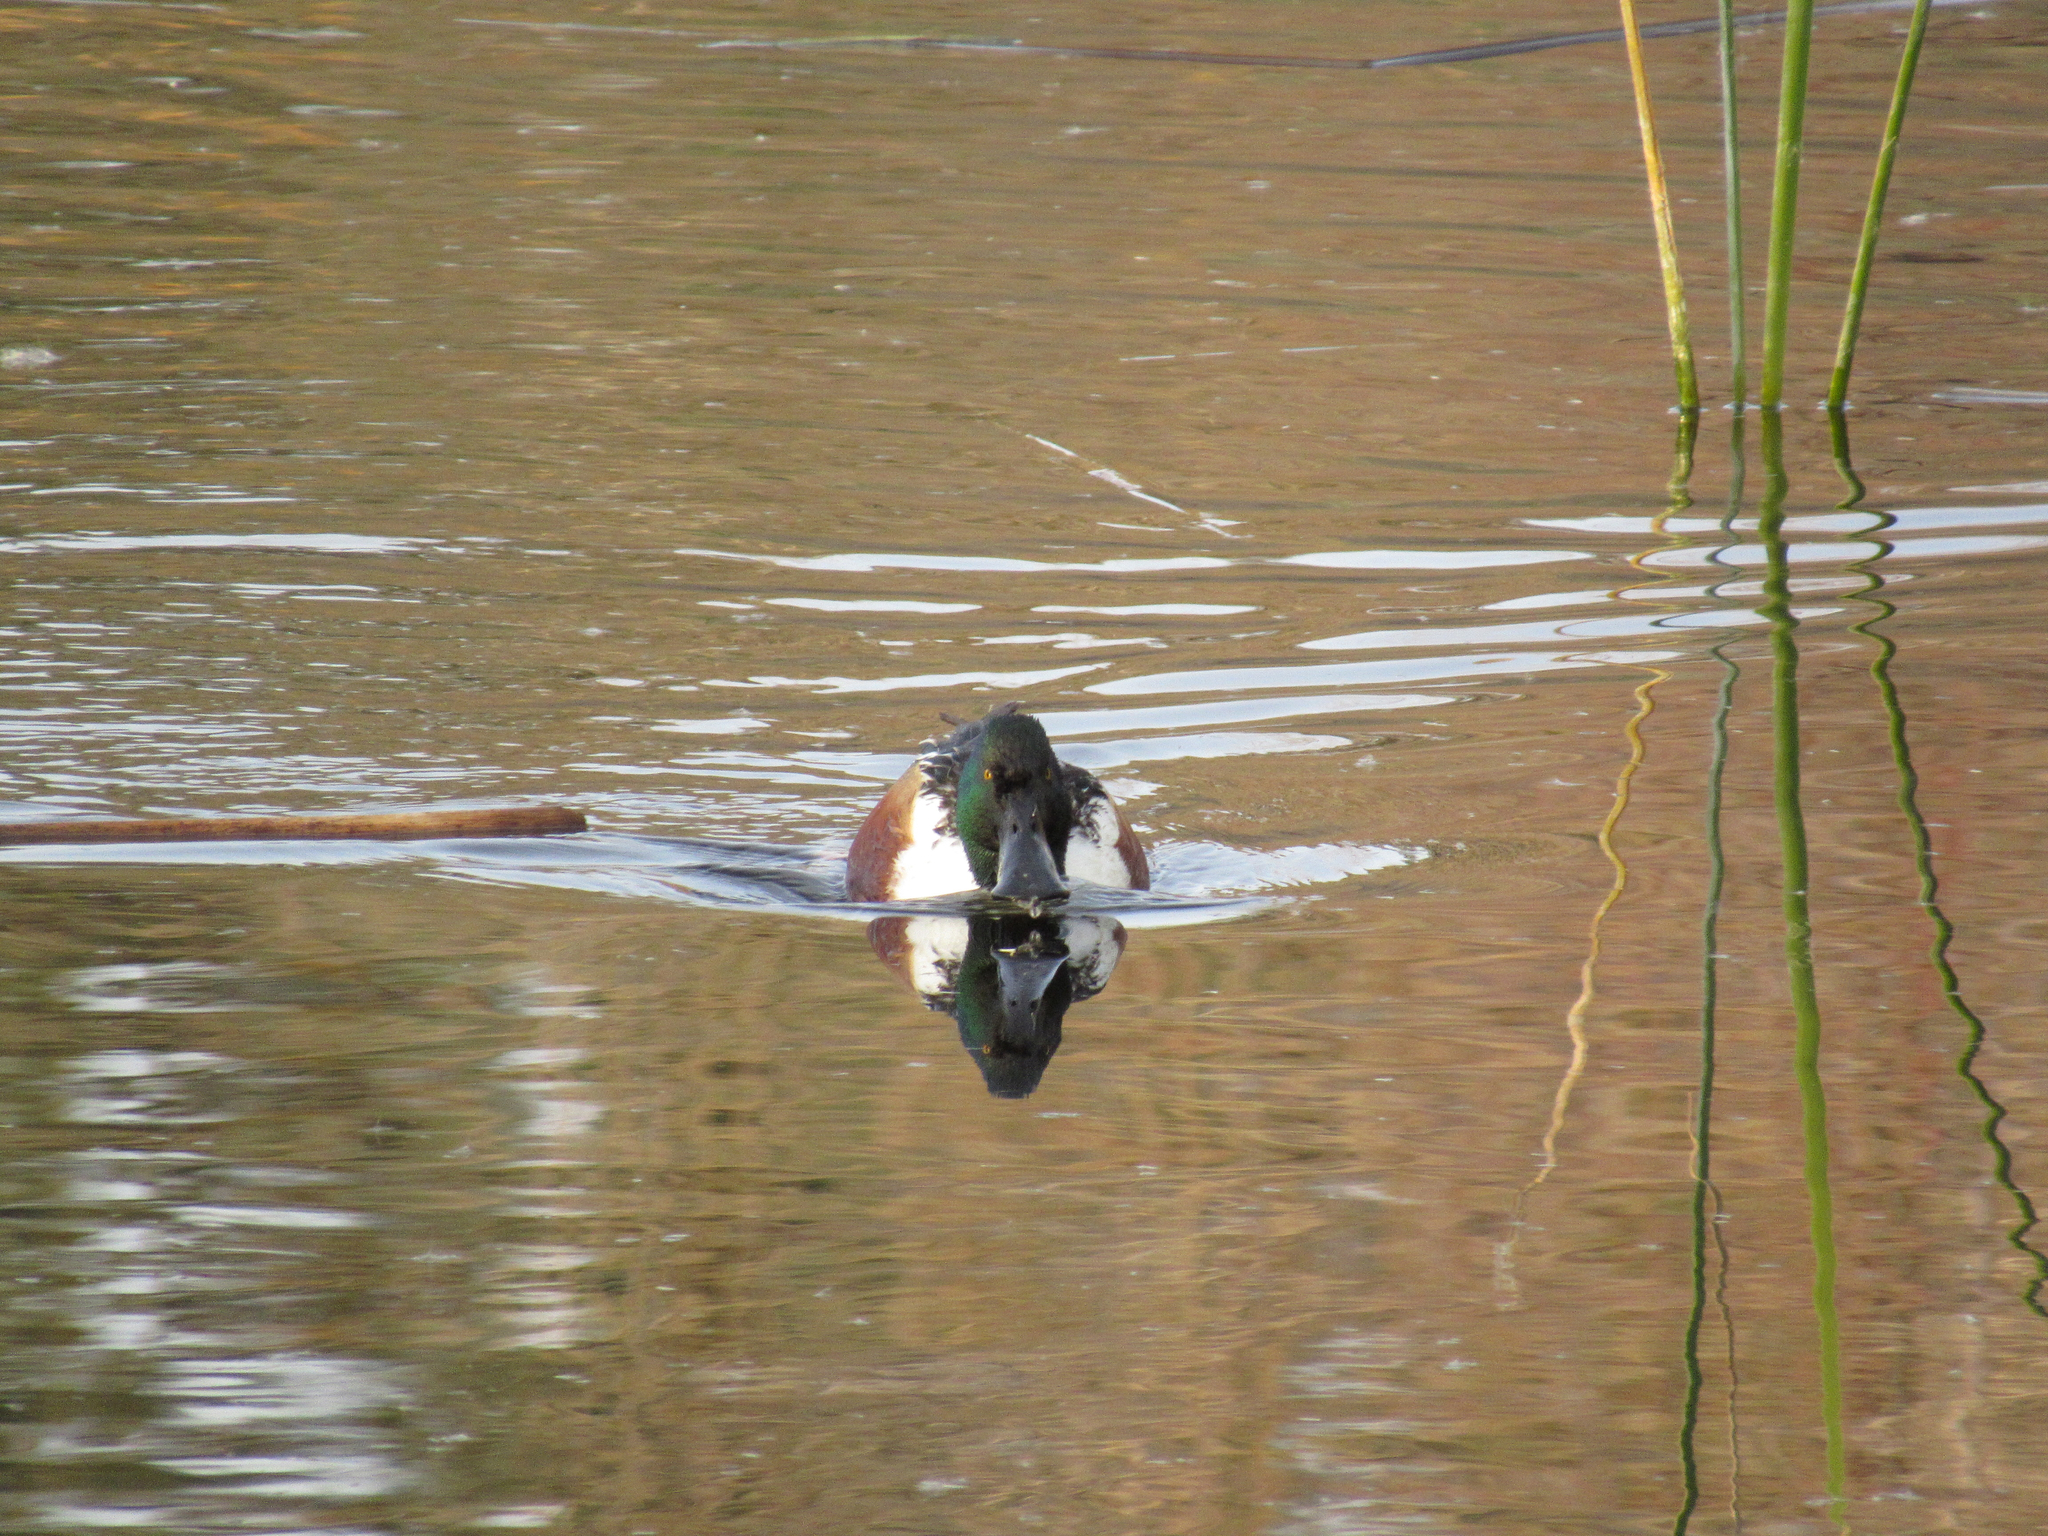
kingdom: Animalia
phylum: Chordata
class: Aves
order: Anseriformes
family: Anatidae
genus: Spatula
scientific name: Spatula clypeata
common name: Northern shoveler
